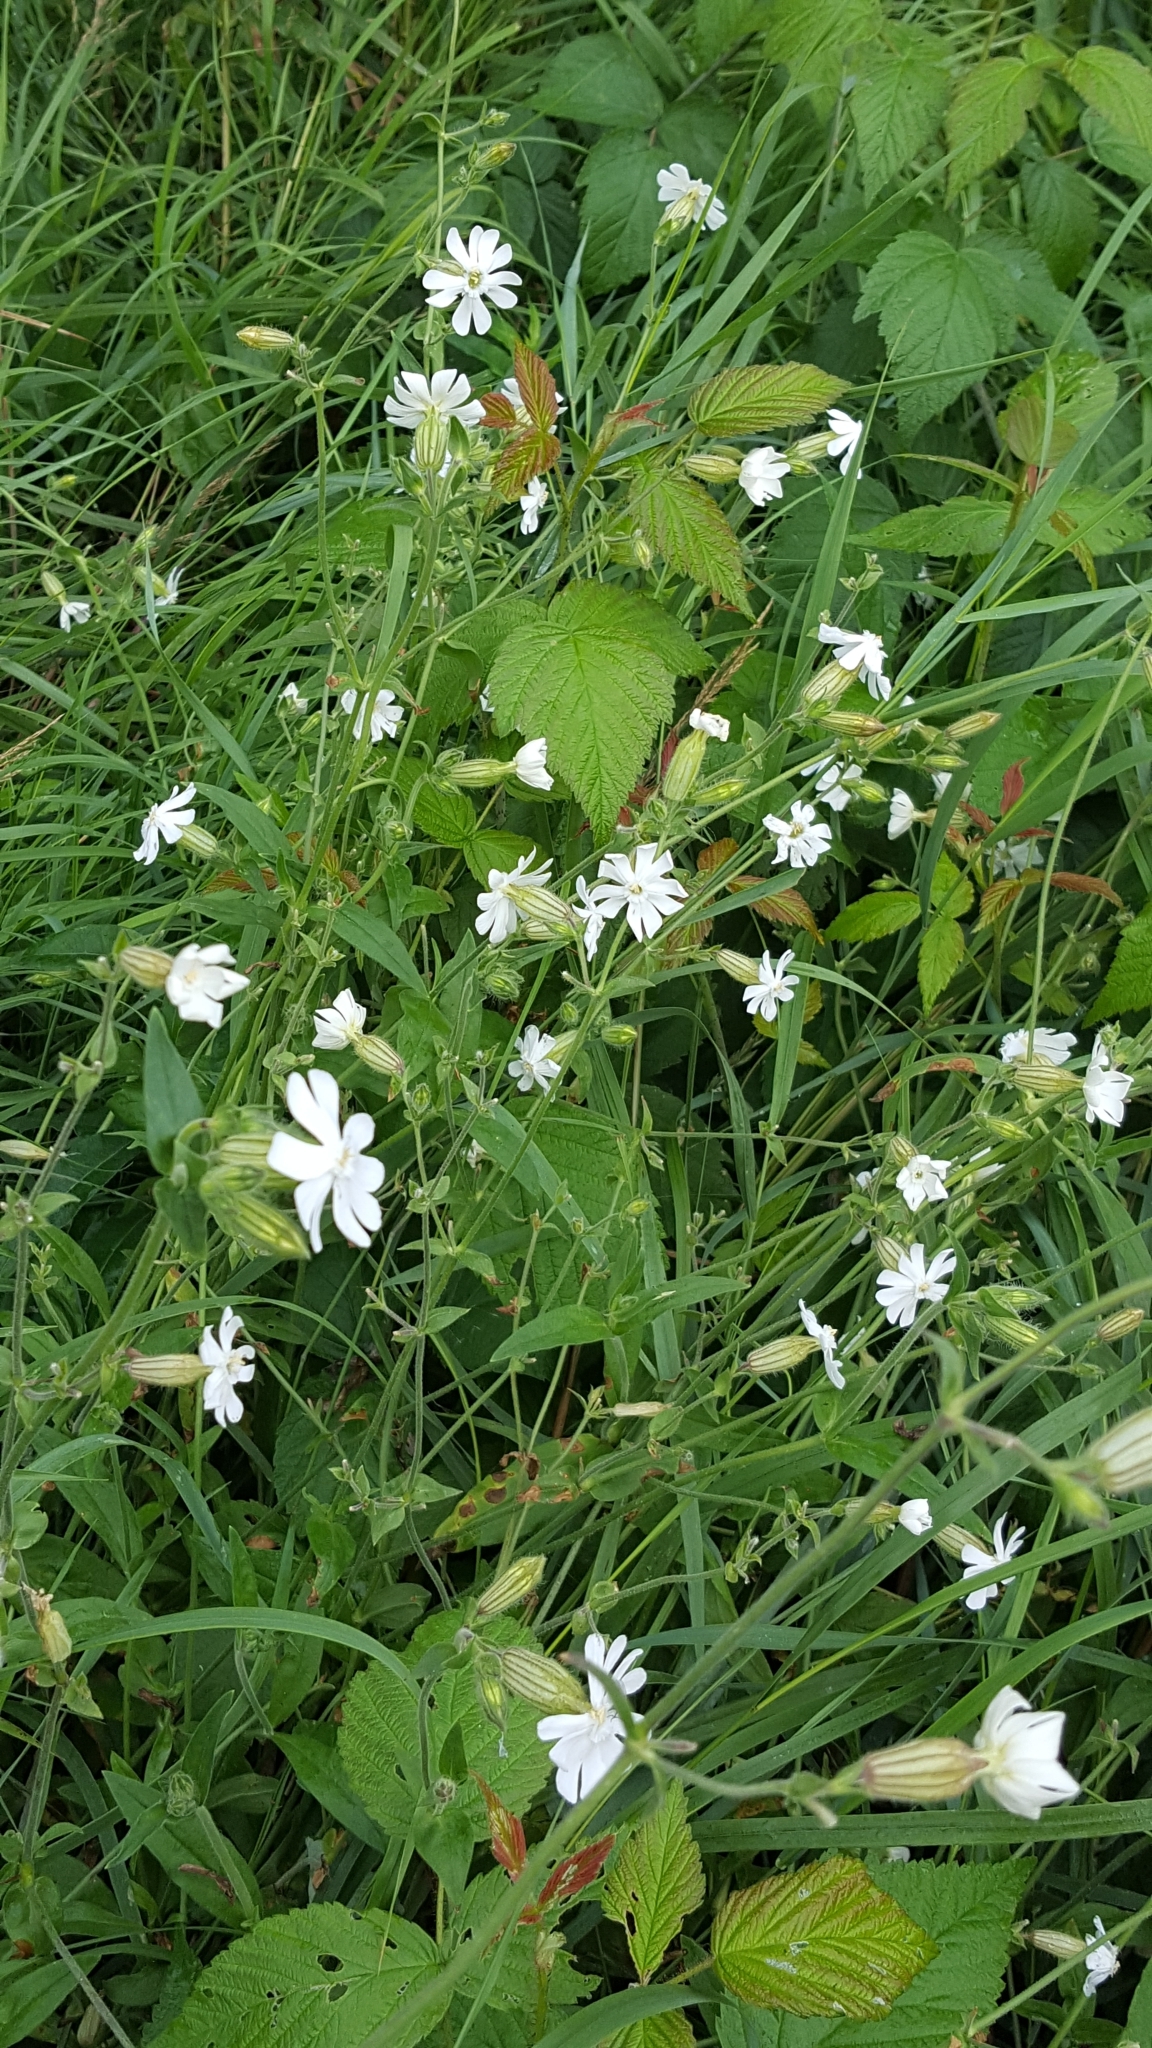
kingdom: Plantae
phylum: Tracheophyta
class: Magnoliopsida
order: Caryophyllales
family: Caryophyllaceae
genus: Silene
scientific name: Silene latifolia
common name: White campion
